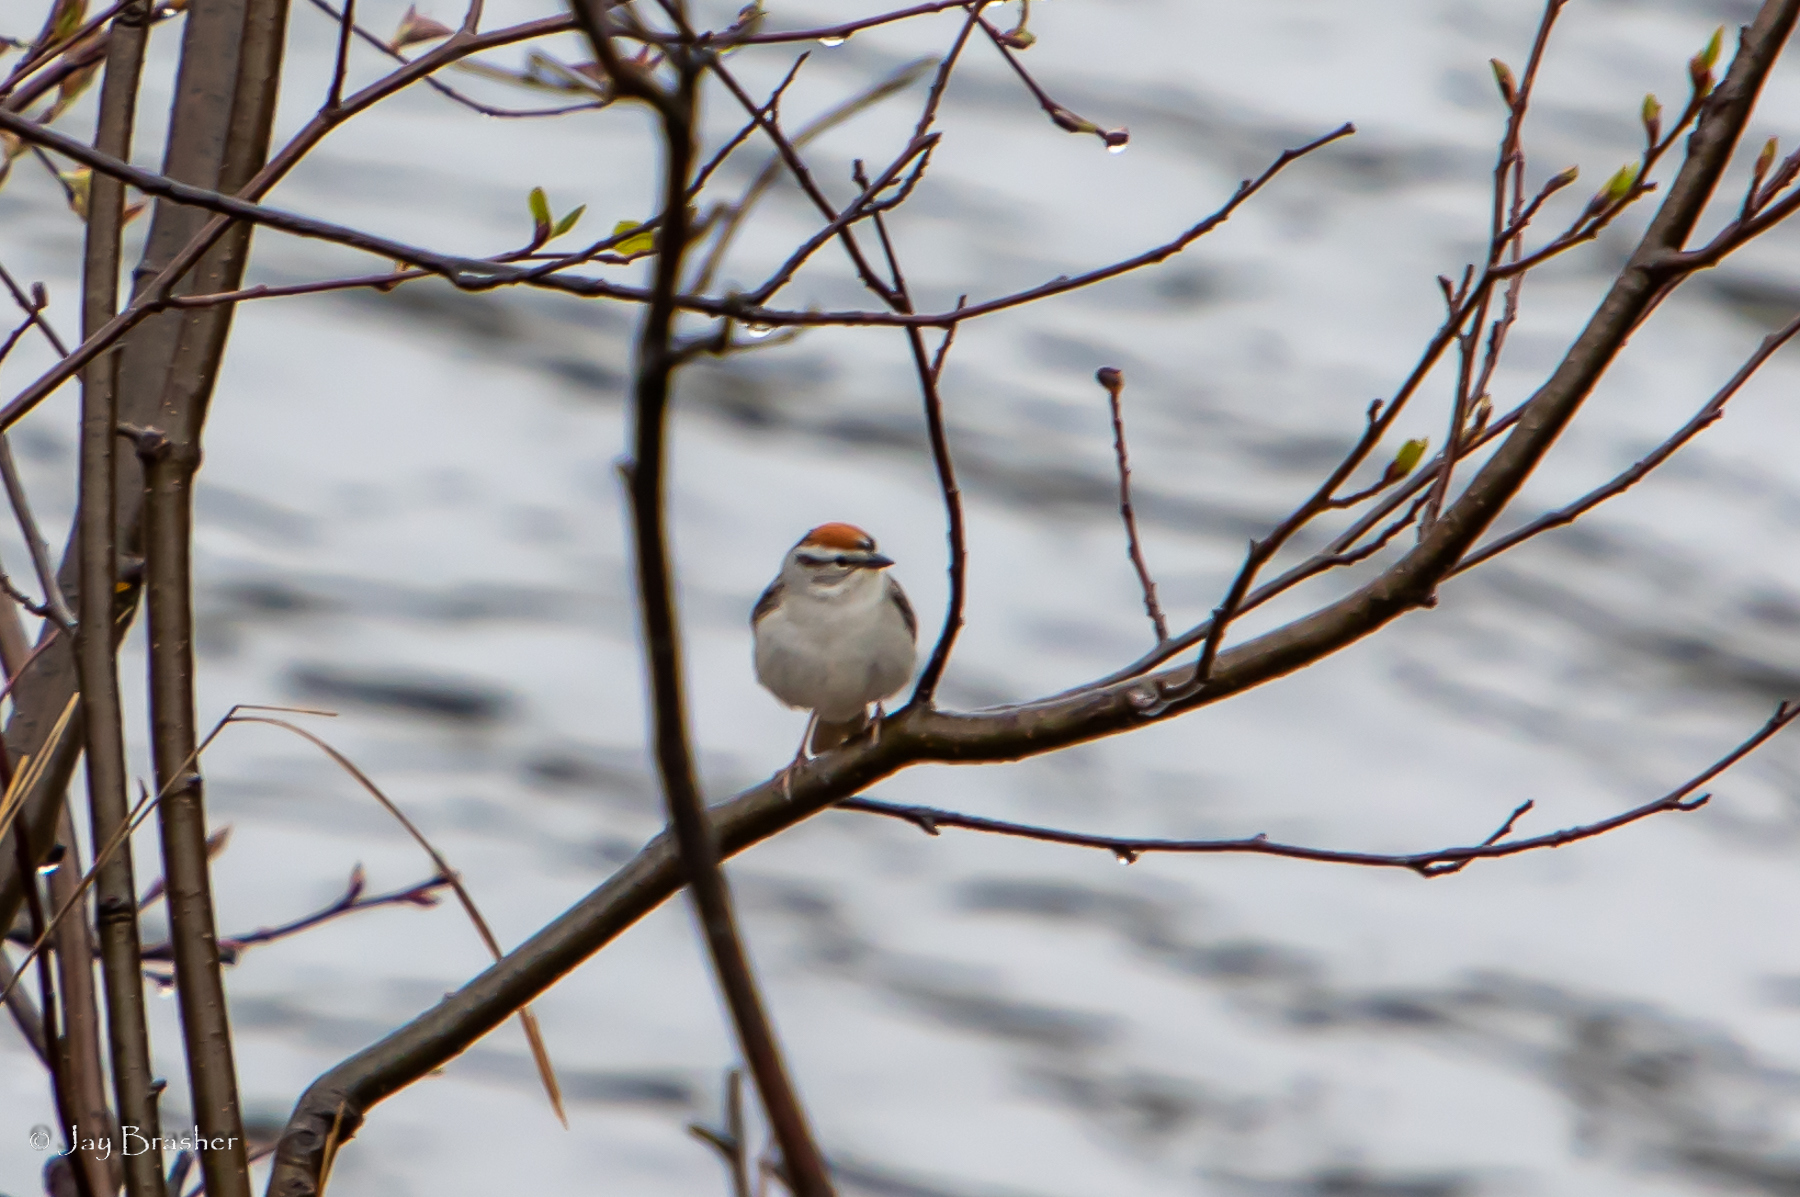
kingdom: Animalia
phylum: Chordata
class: Aves
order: Passeriformes
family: Passerellidae
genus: Spizella
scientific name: Spizella passerina
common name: Chipping sparrow
